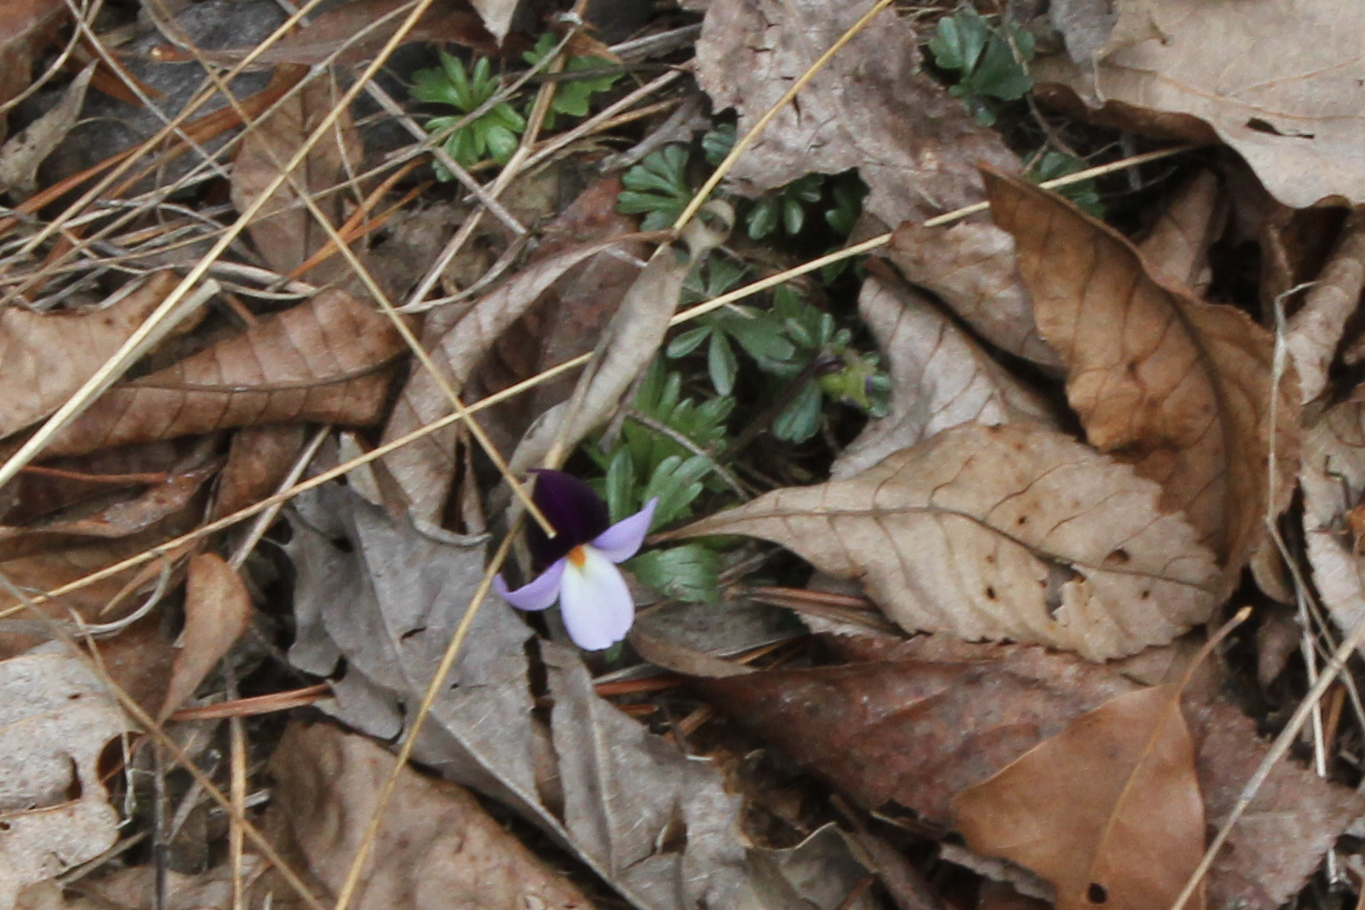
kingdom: Plantae
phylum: Tracheophyta
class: Magnoliopsida
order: Malpighiales
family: Violaceae
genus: Viola
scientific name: Viola pedata
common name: Pansy violet
